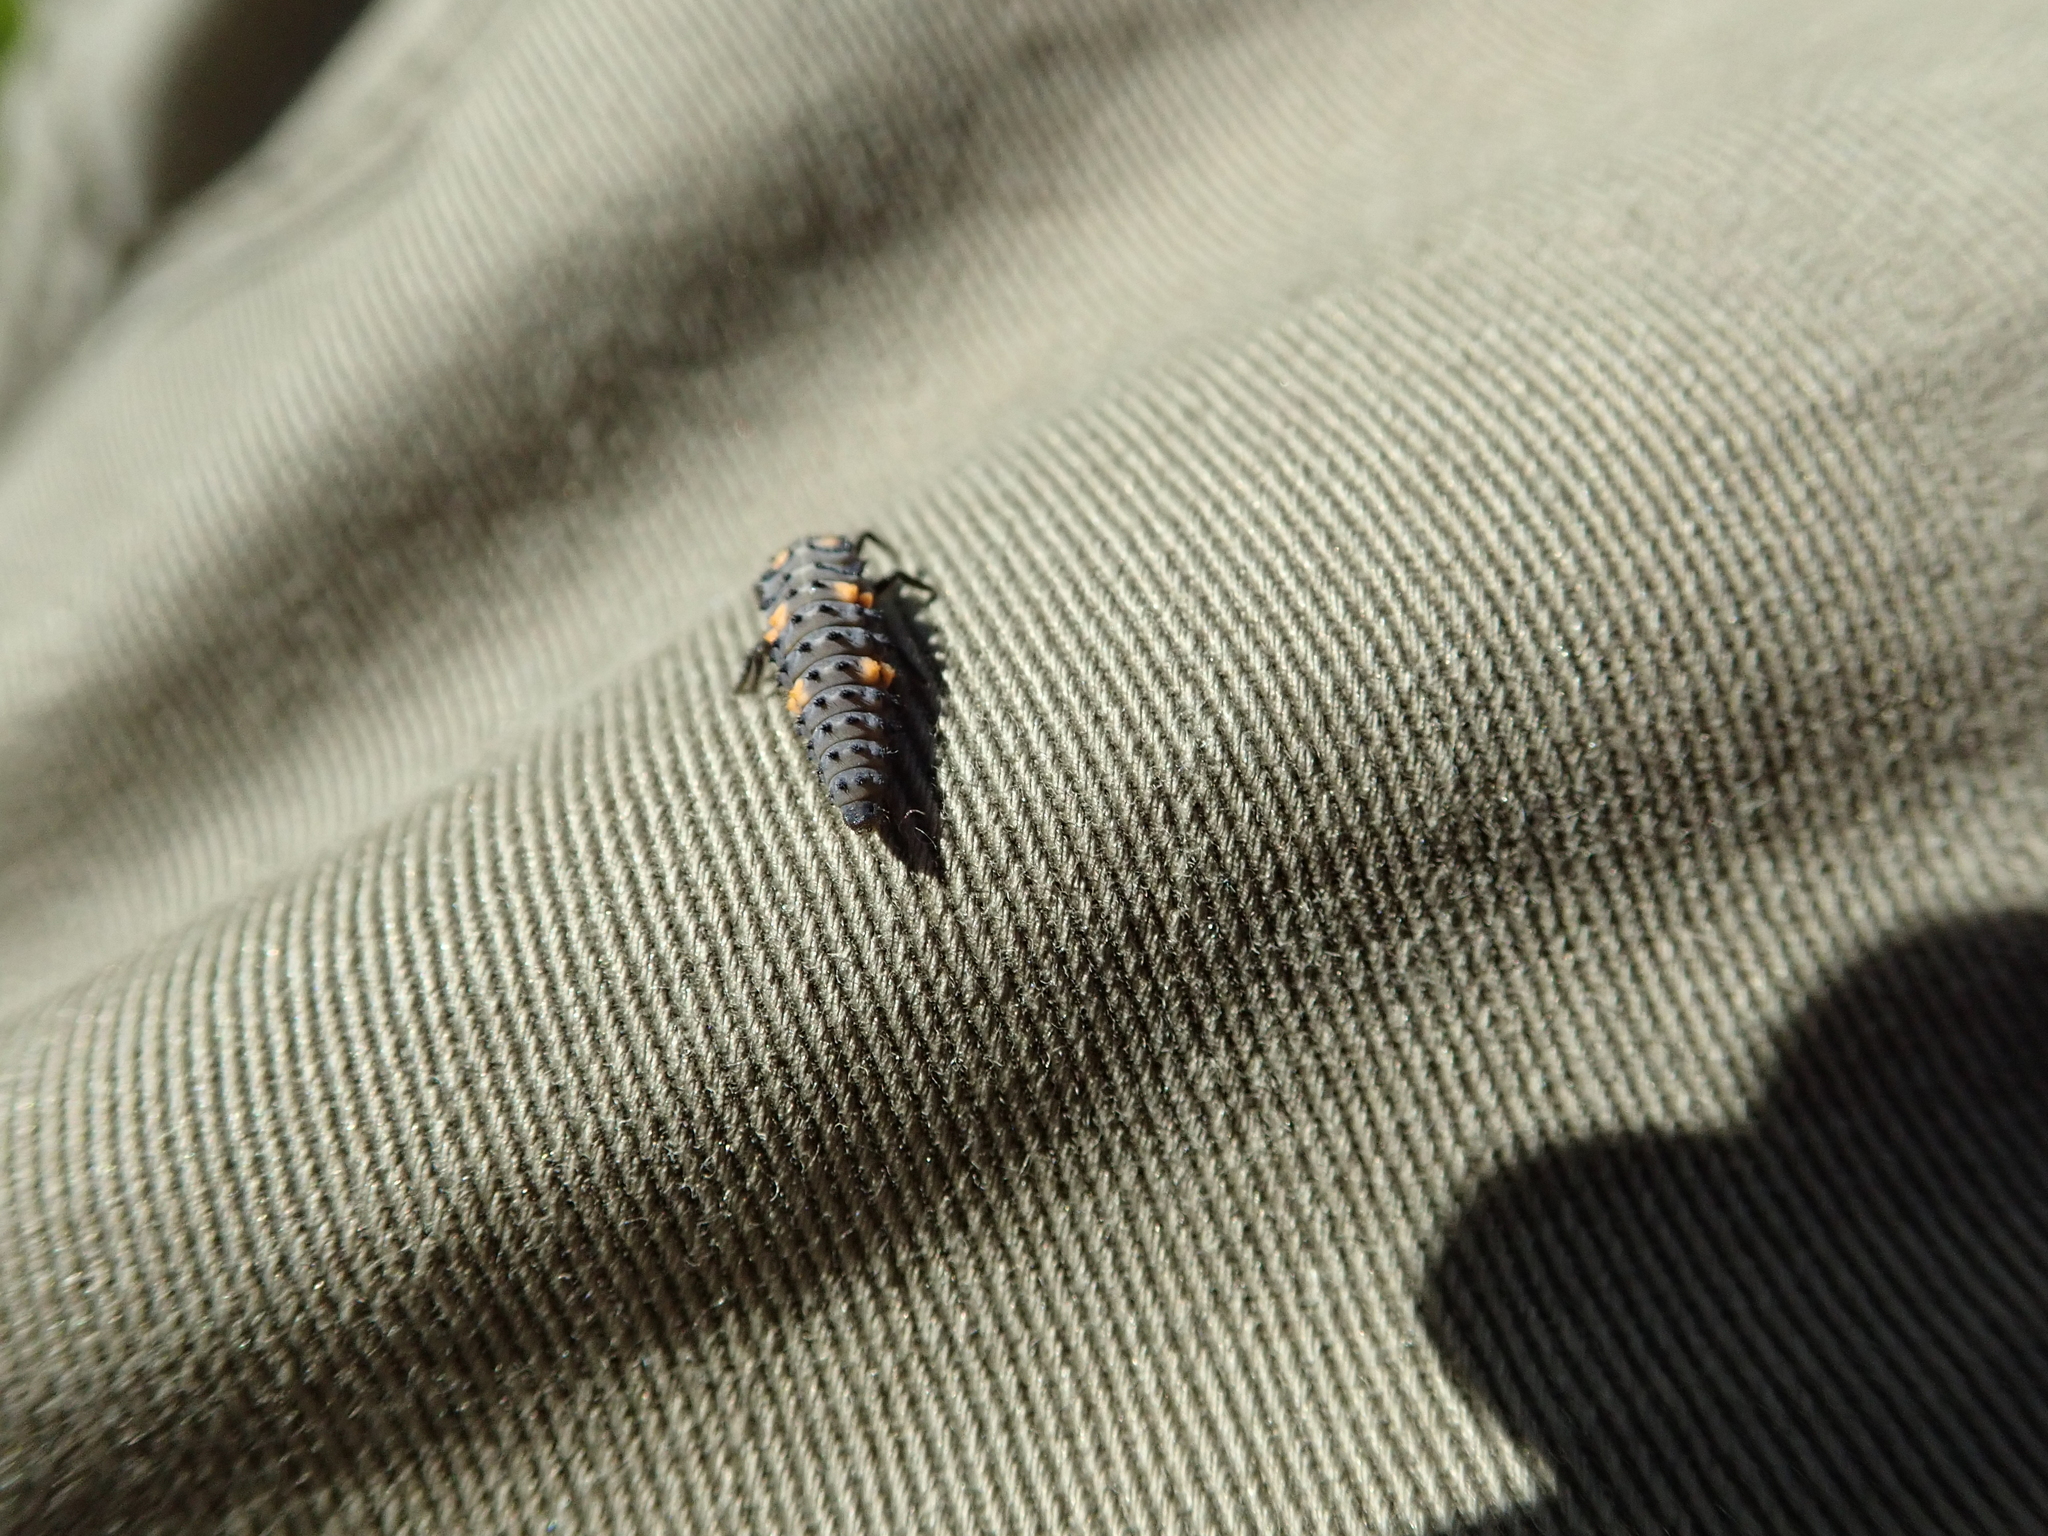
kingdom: Animalia
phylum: Arthropoda
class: Insecta
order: Coleoptera
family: Coccinellidae
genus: Coccinella
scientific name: Coccinella septempunctata
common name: Sevenspotted lady beetle
